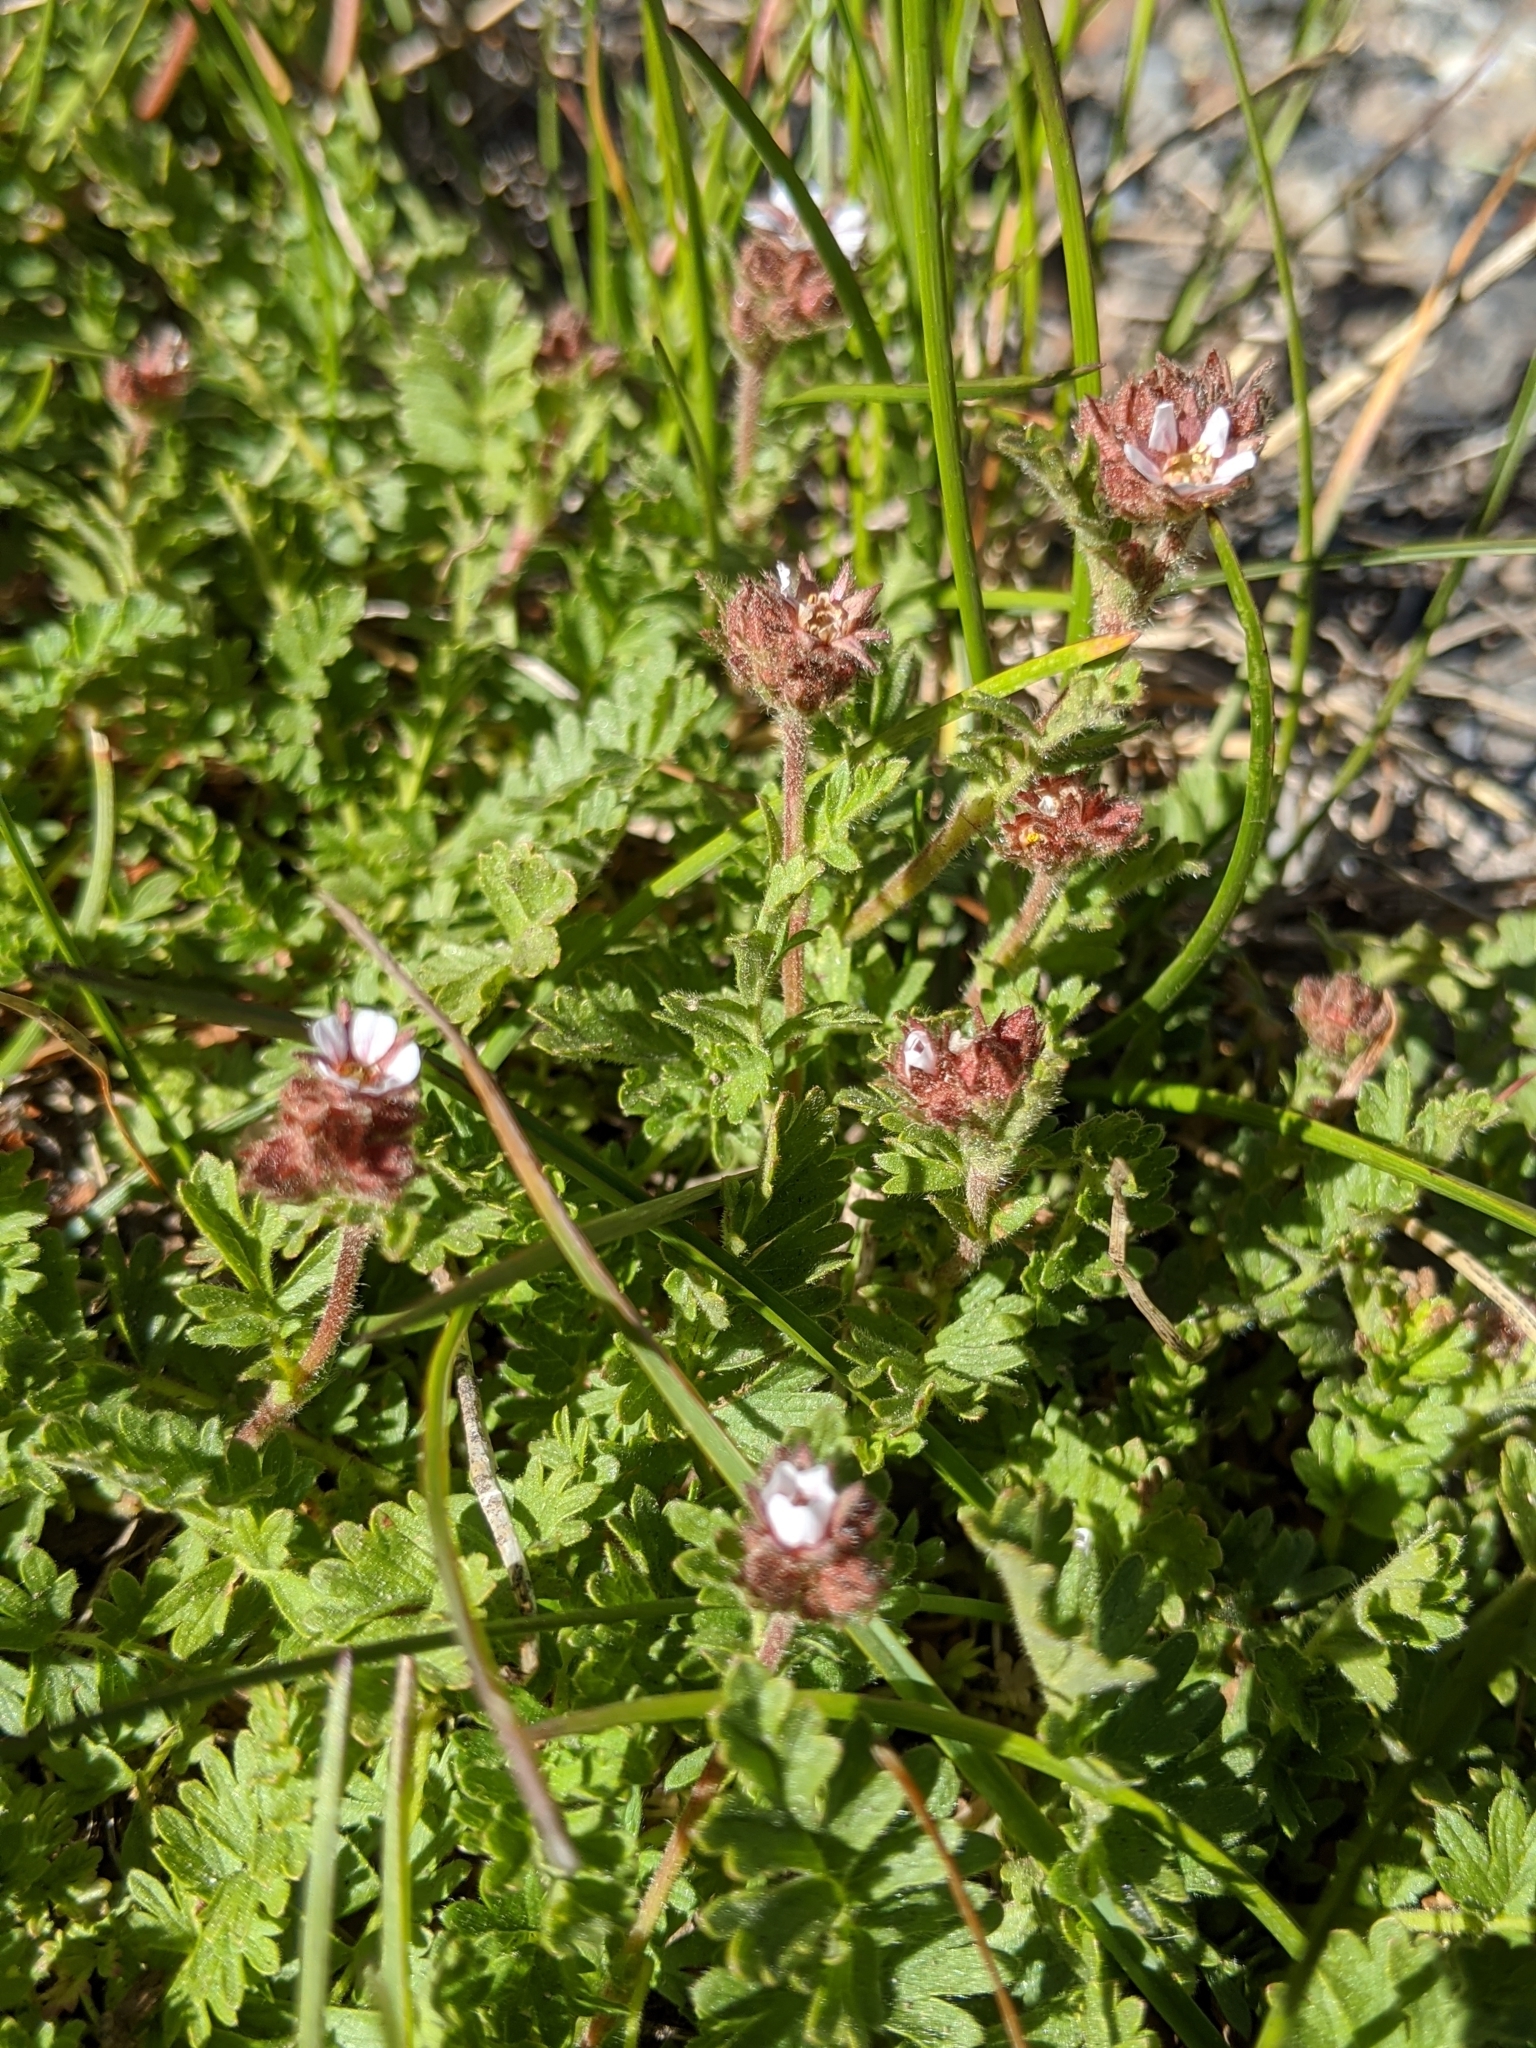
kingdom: Plantae
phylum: Tracheophyta
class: Magnoliopsida
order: Rosales
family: Rosaceae
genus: Potentilla
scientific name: Potentilla douglasii
